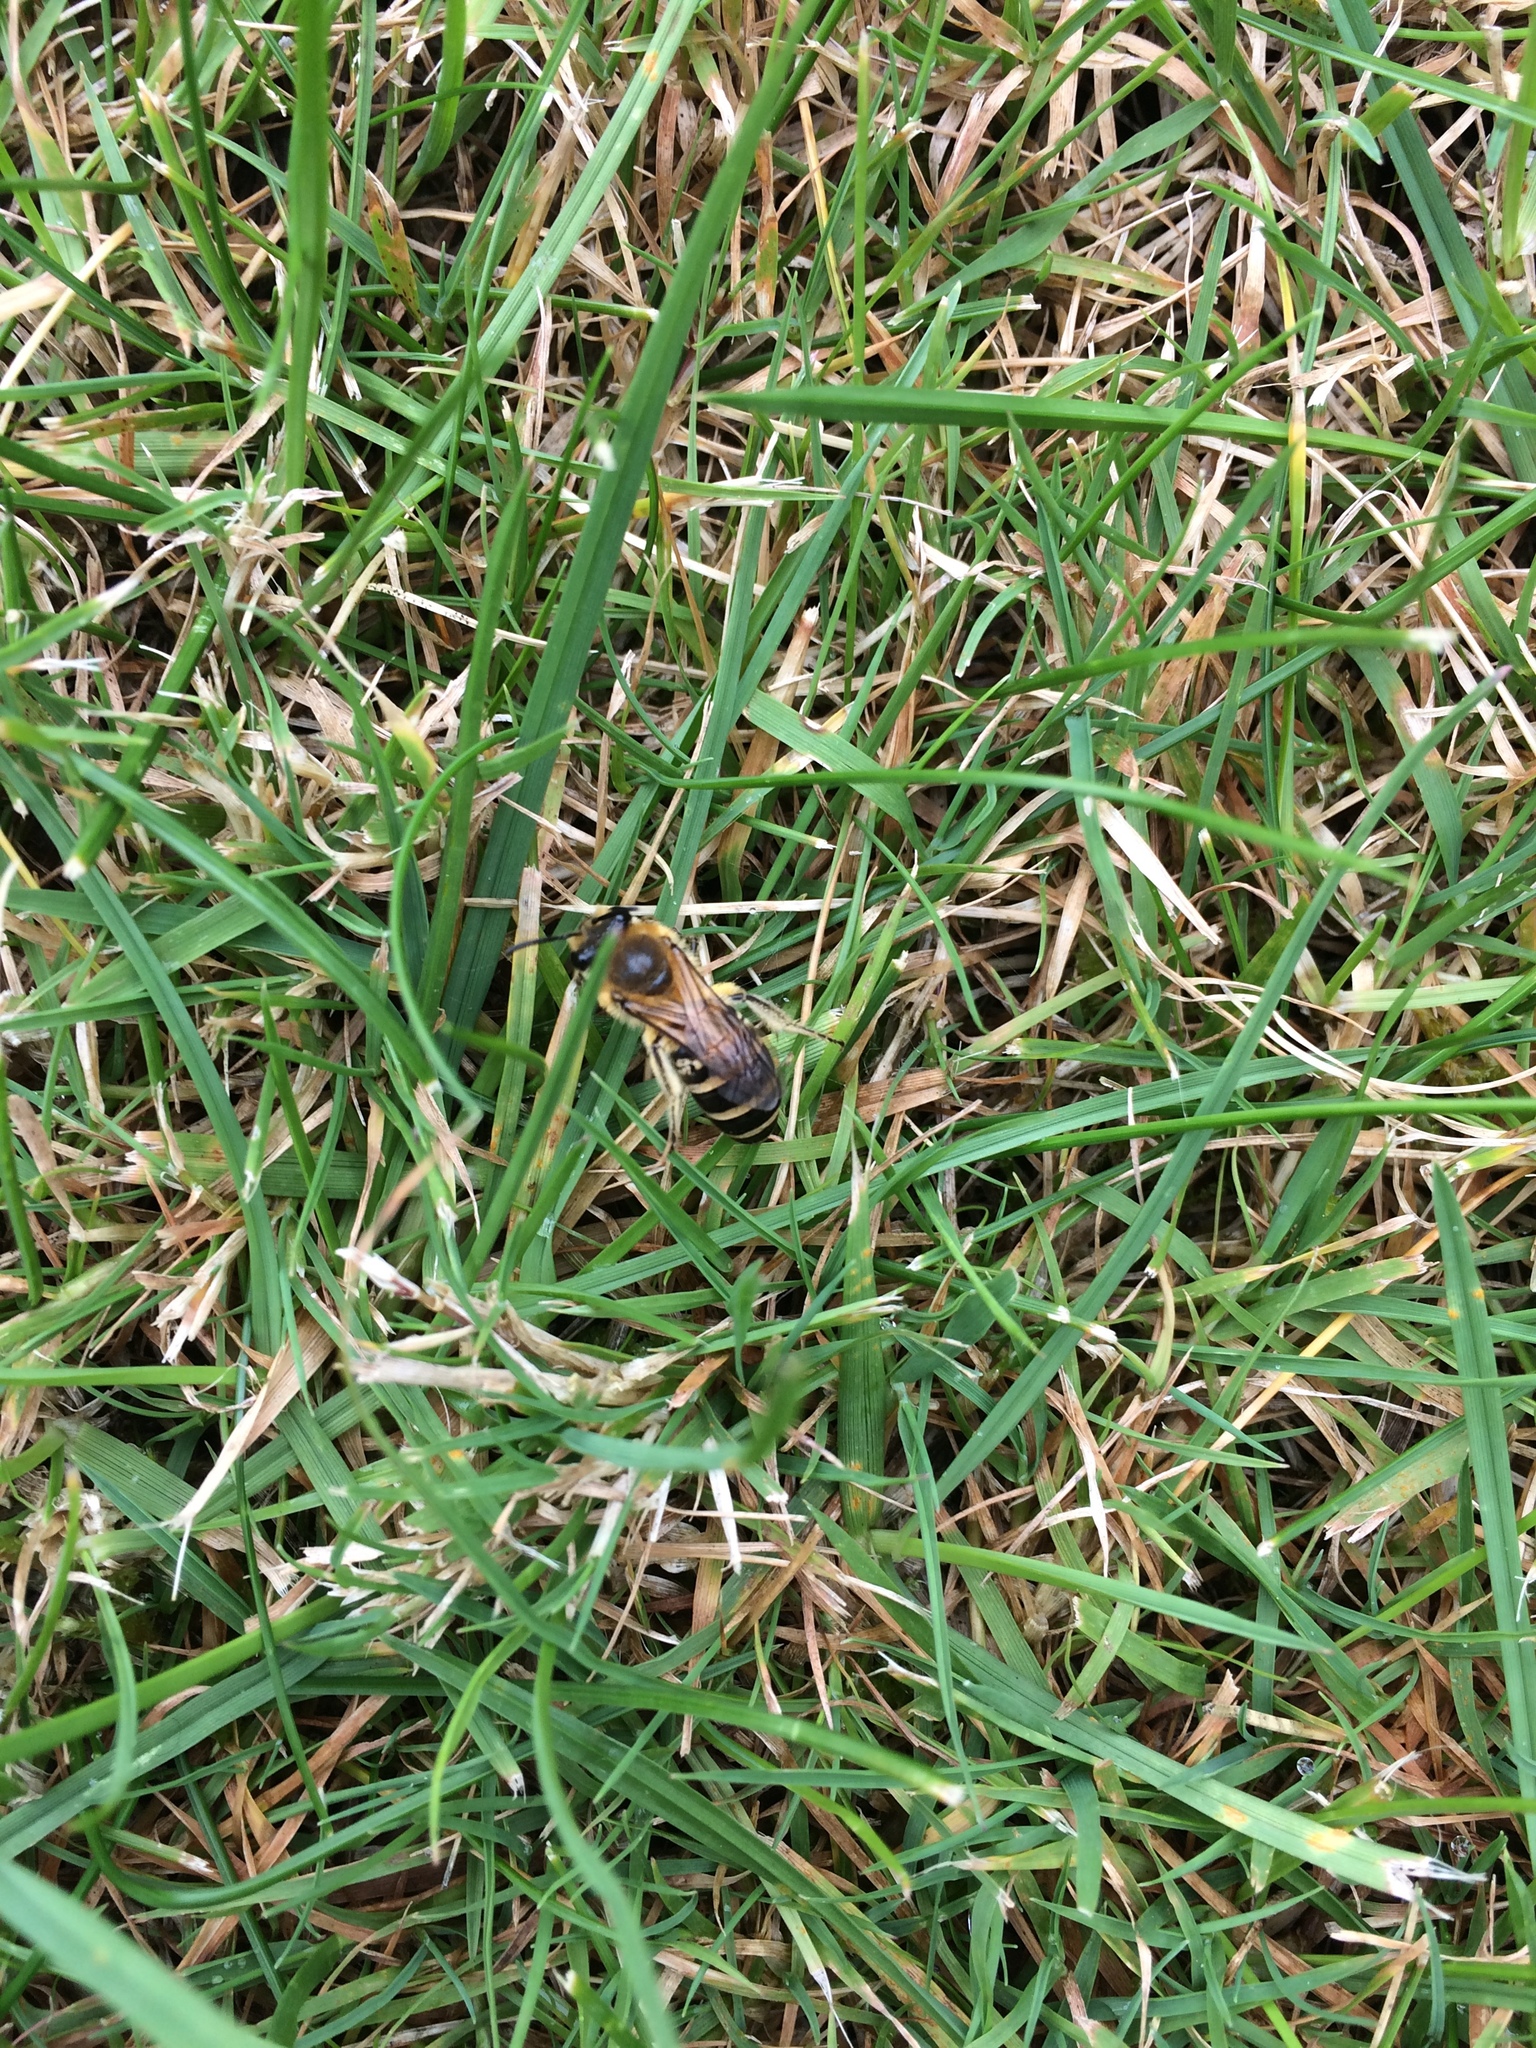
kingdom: Animalia
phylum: Arthropoda
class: Insecta
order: Hymenoptera
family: Colletidae
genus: Colletes
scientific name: Colletes hederae
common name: Ivy bee
